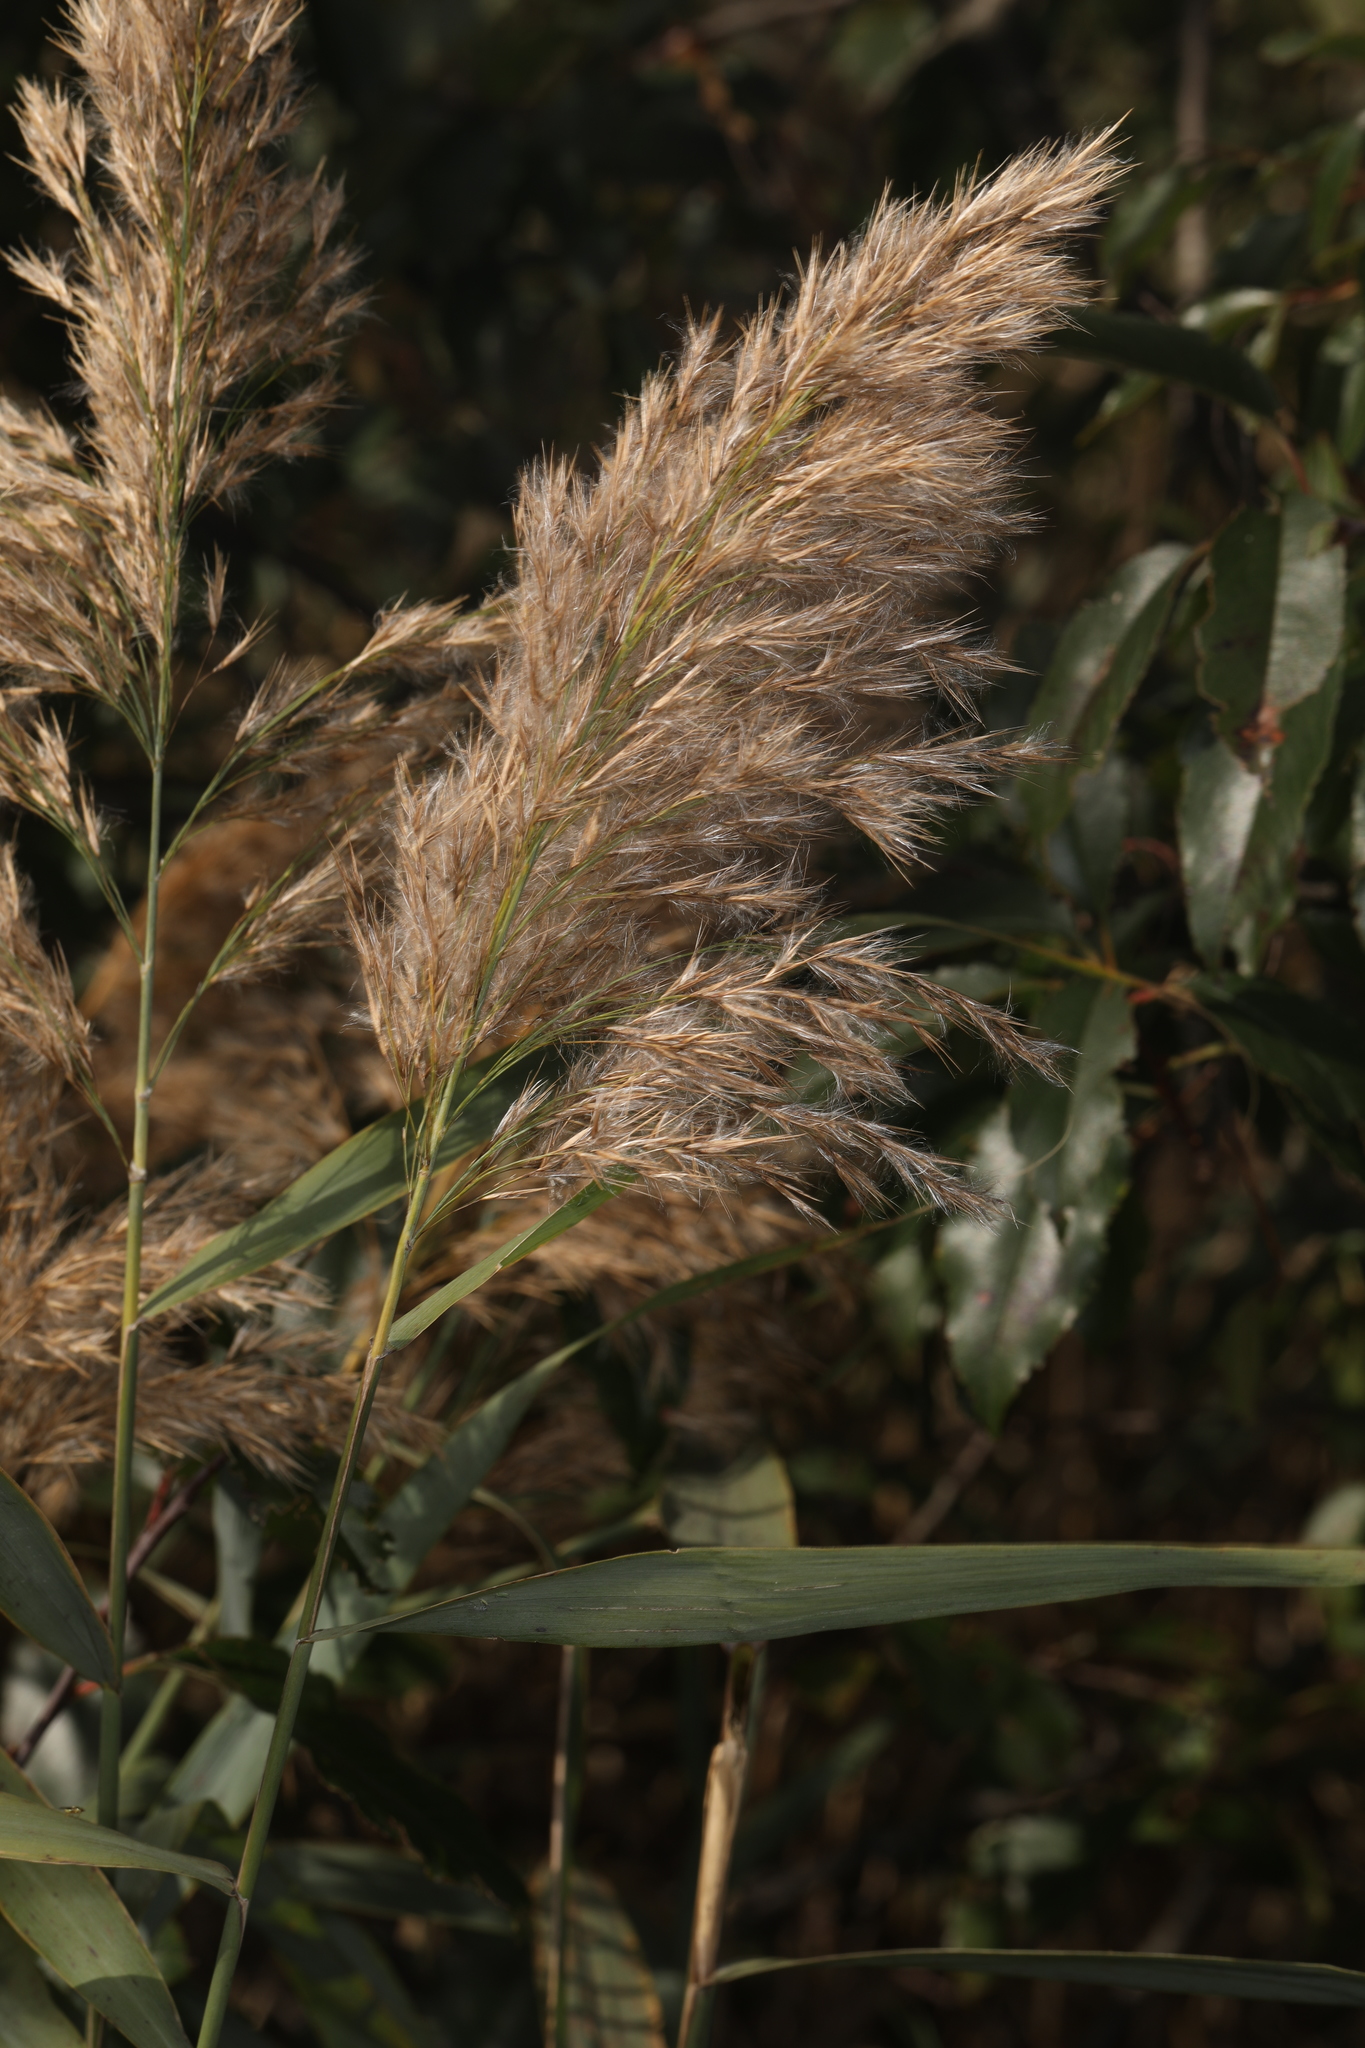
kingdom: Plantae
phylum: Tracheophyta
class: Liliopsida
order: Poales
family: Poaceae
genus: Phragmites
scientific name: Phragmites australis
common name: Common reed
